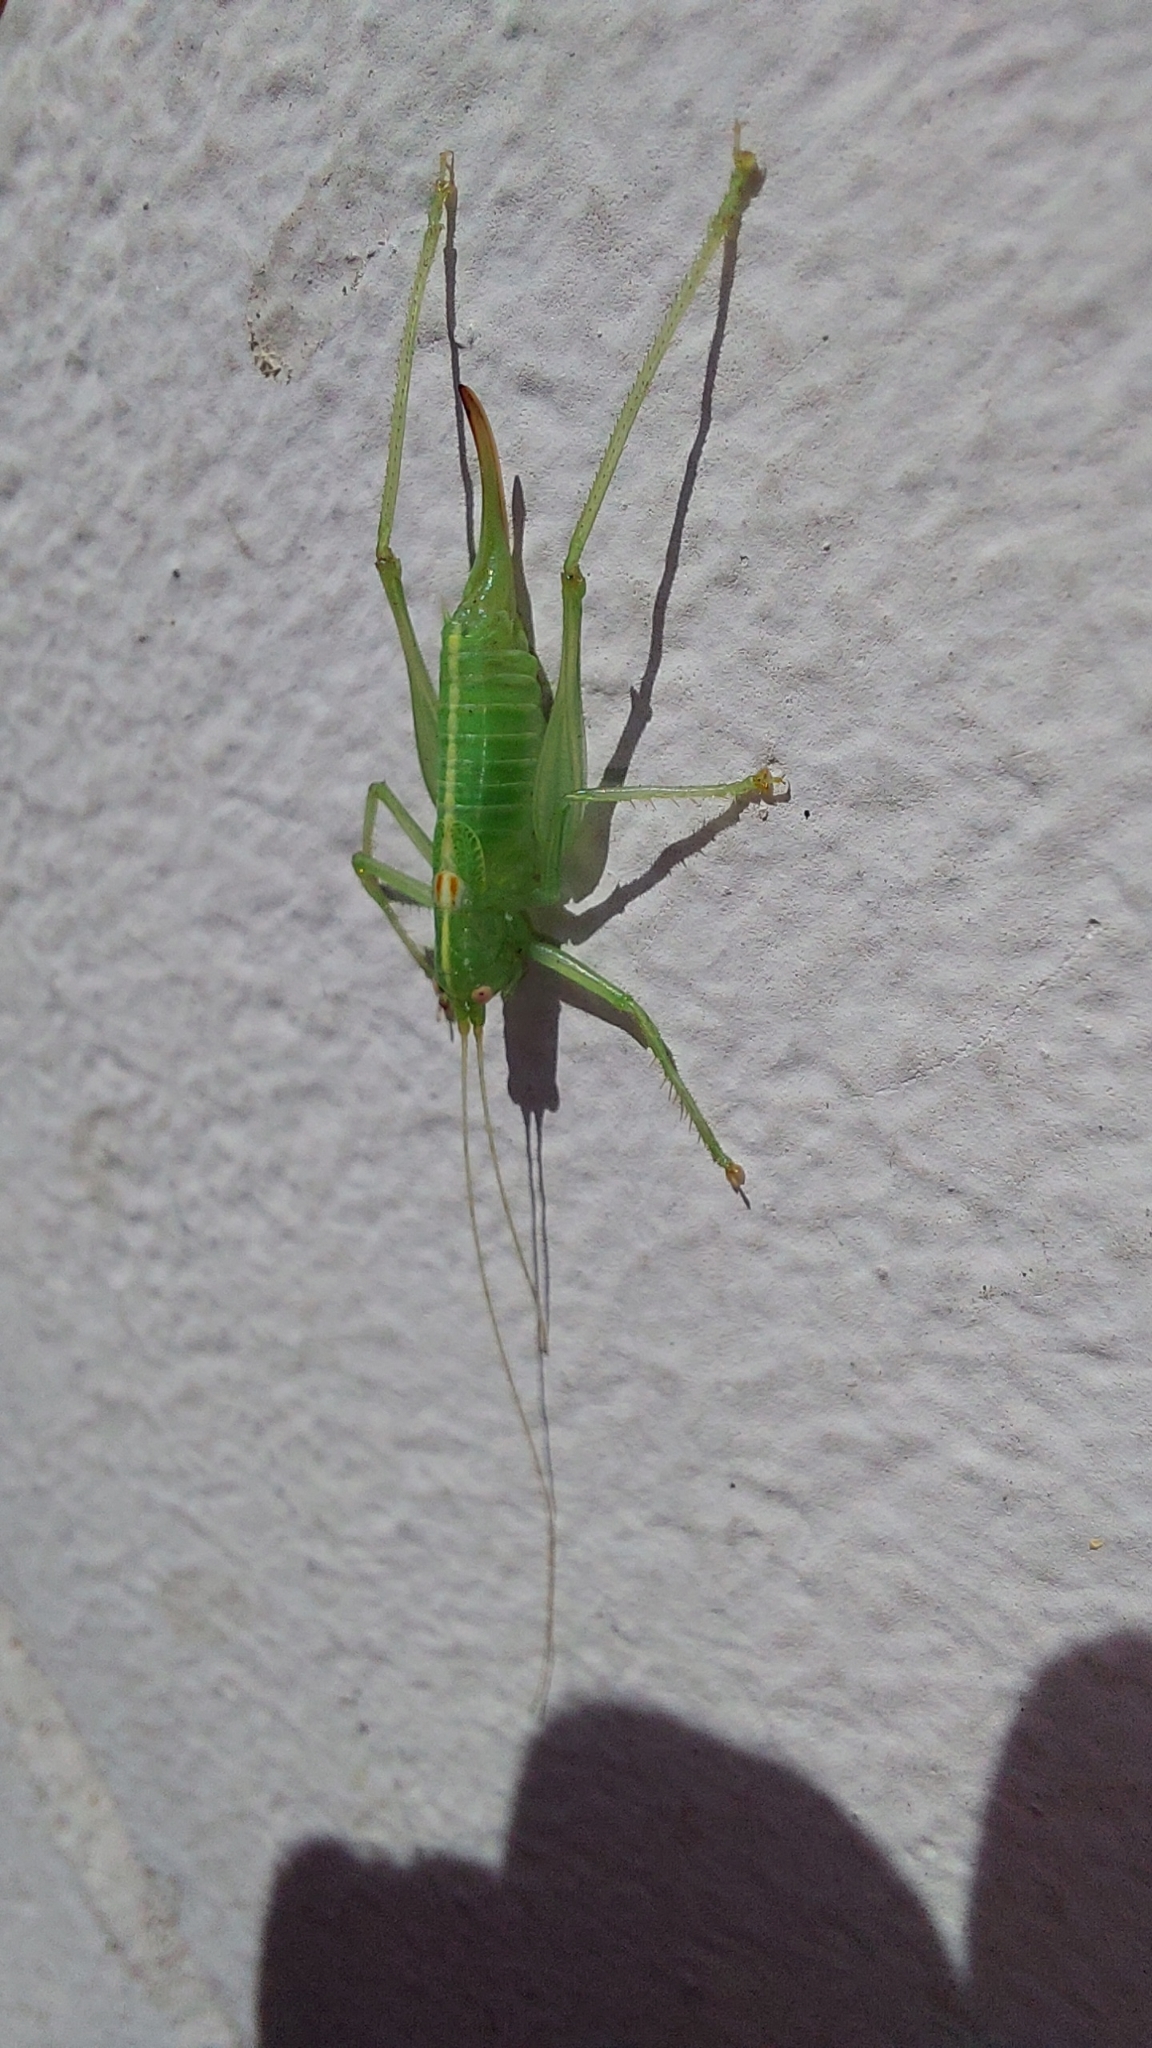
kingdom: Animalia
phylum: Arthropoda
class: Insecta
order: Orthoptera
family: Tettigoniidae
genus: Meconema
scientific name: Meconema meridionale
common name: Southern oak bush-cricket
